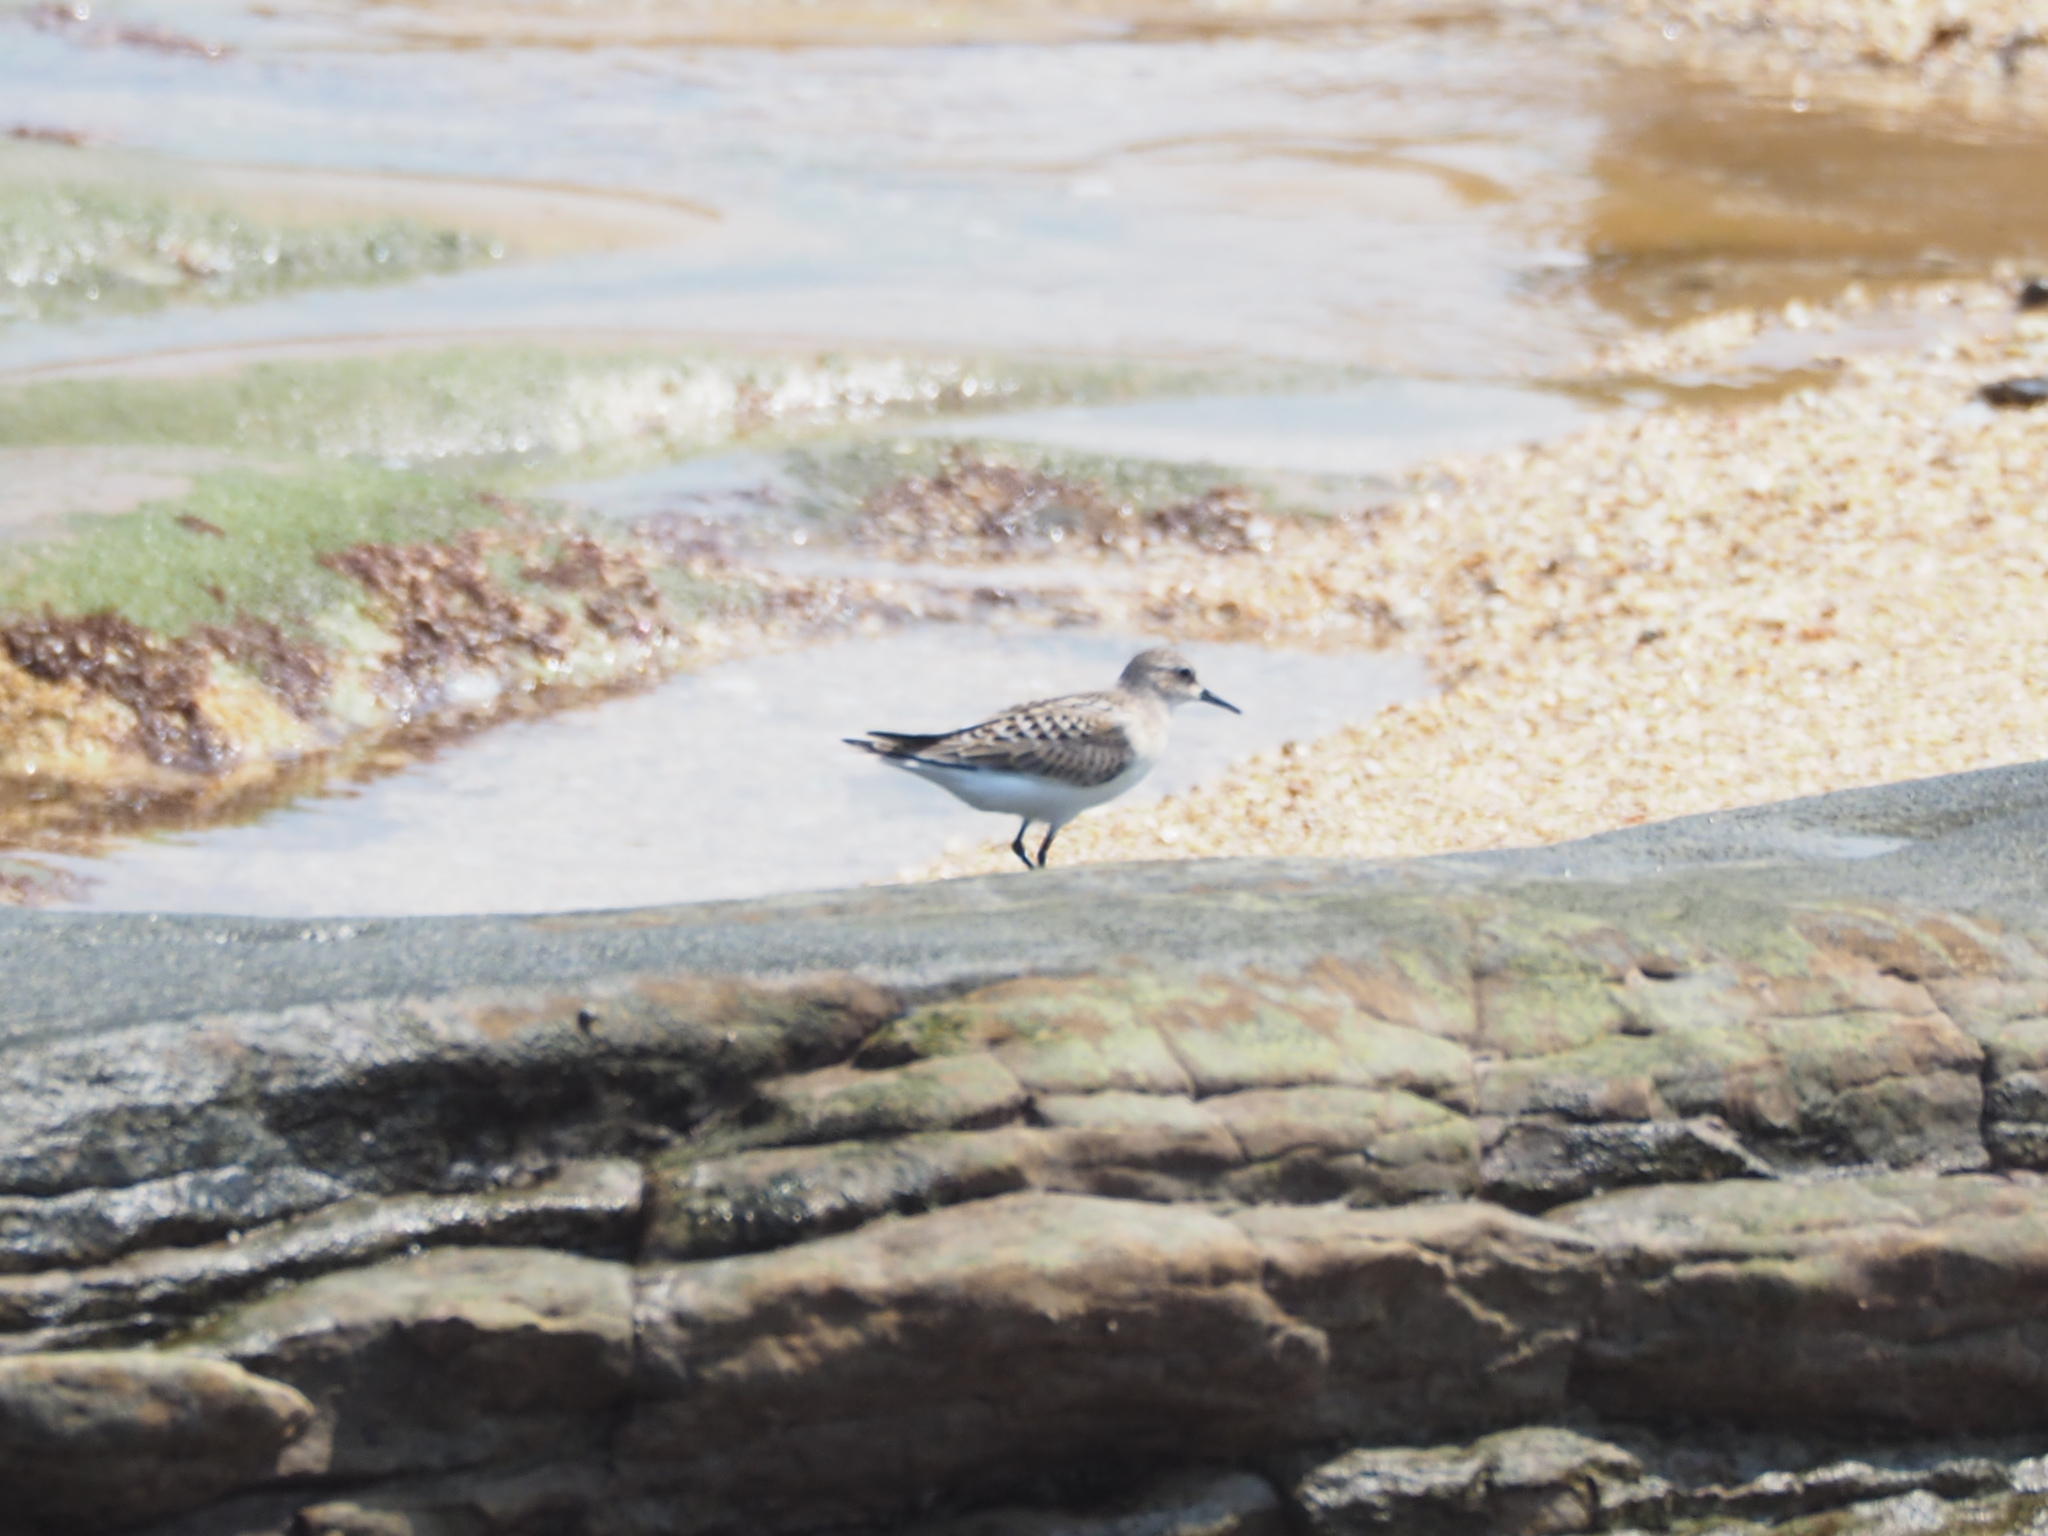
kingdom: Animalia
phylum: Chordata
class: Aves
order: Charadriiformes
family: Scolopacidae
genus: Calidris
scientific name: Calidris ruficollis
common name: Red-necked stint
